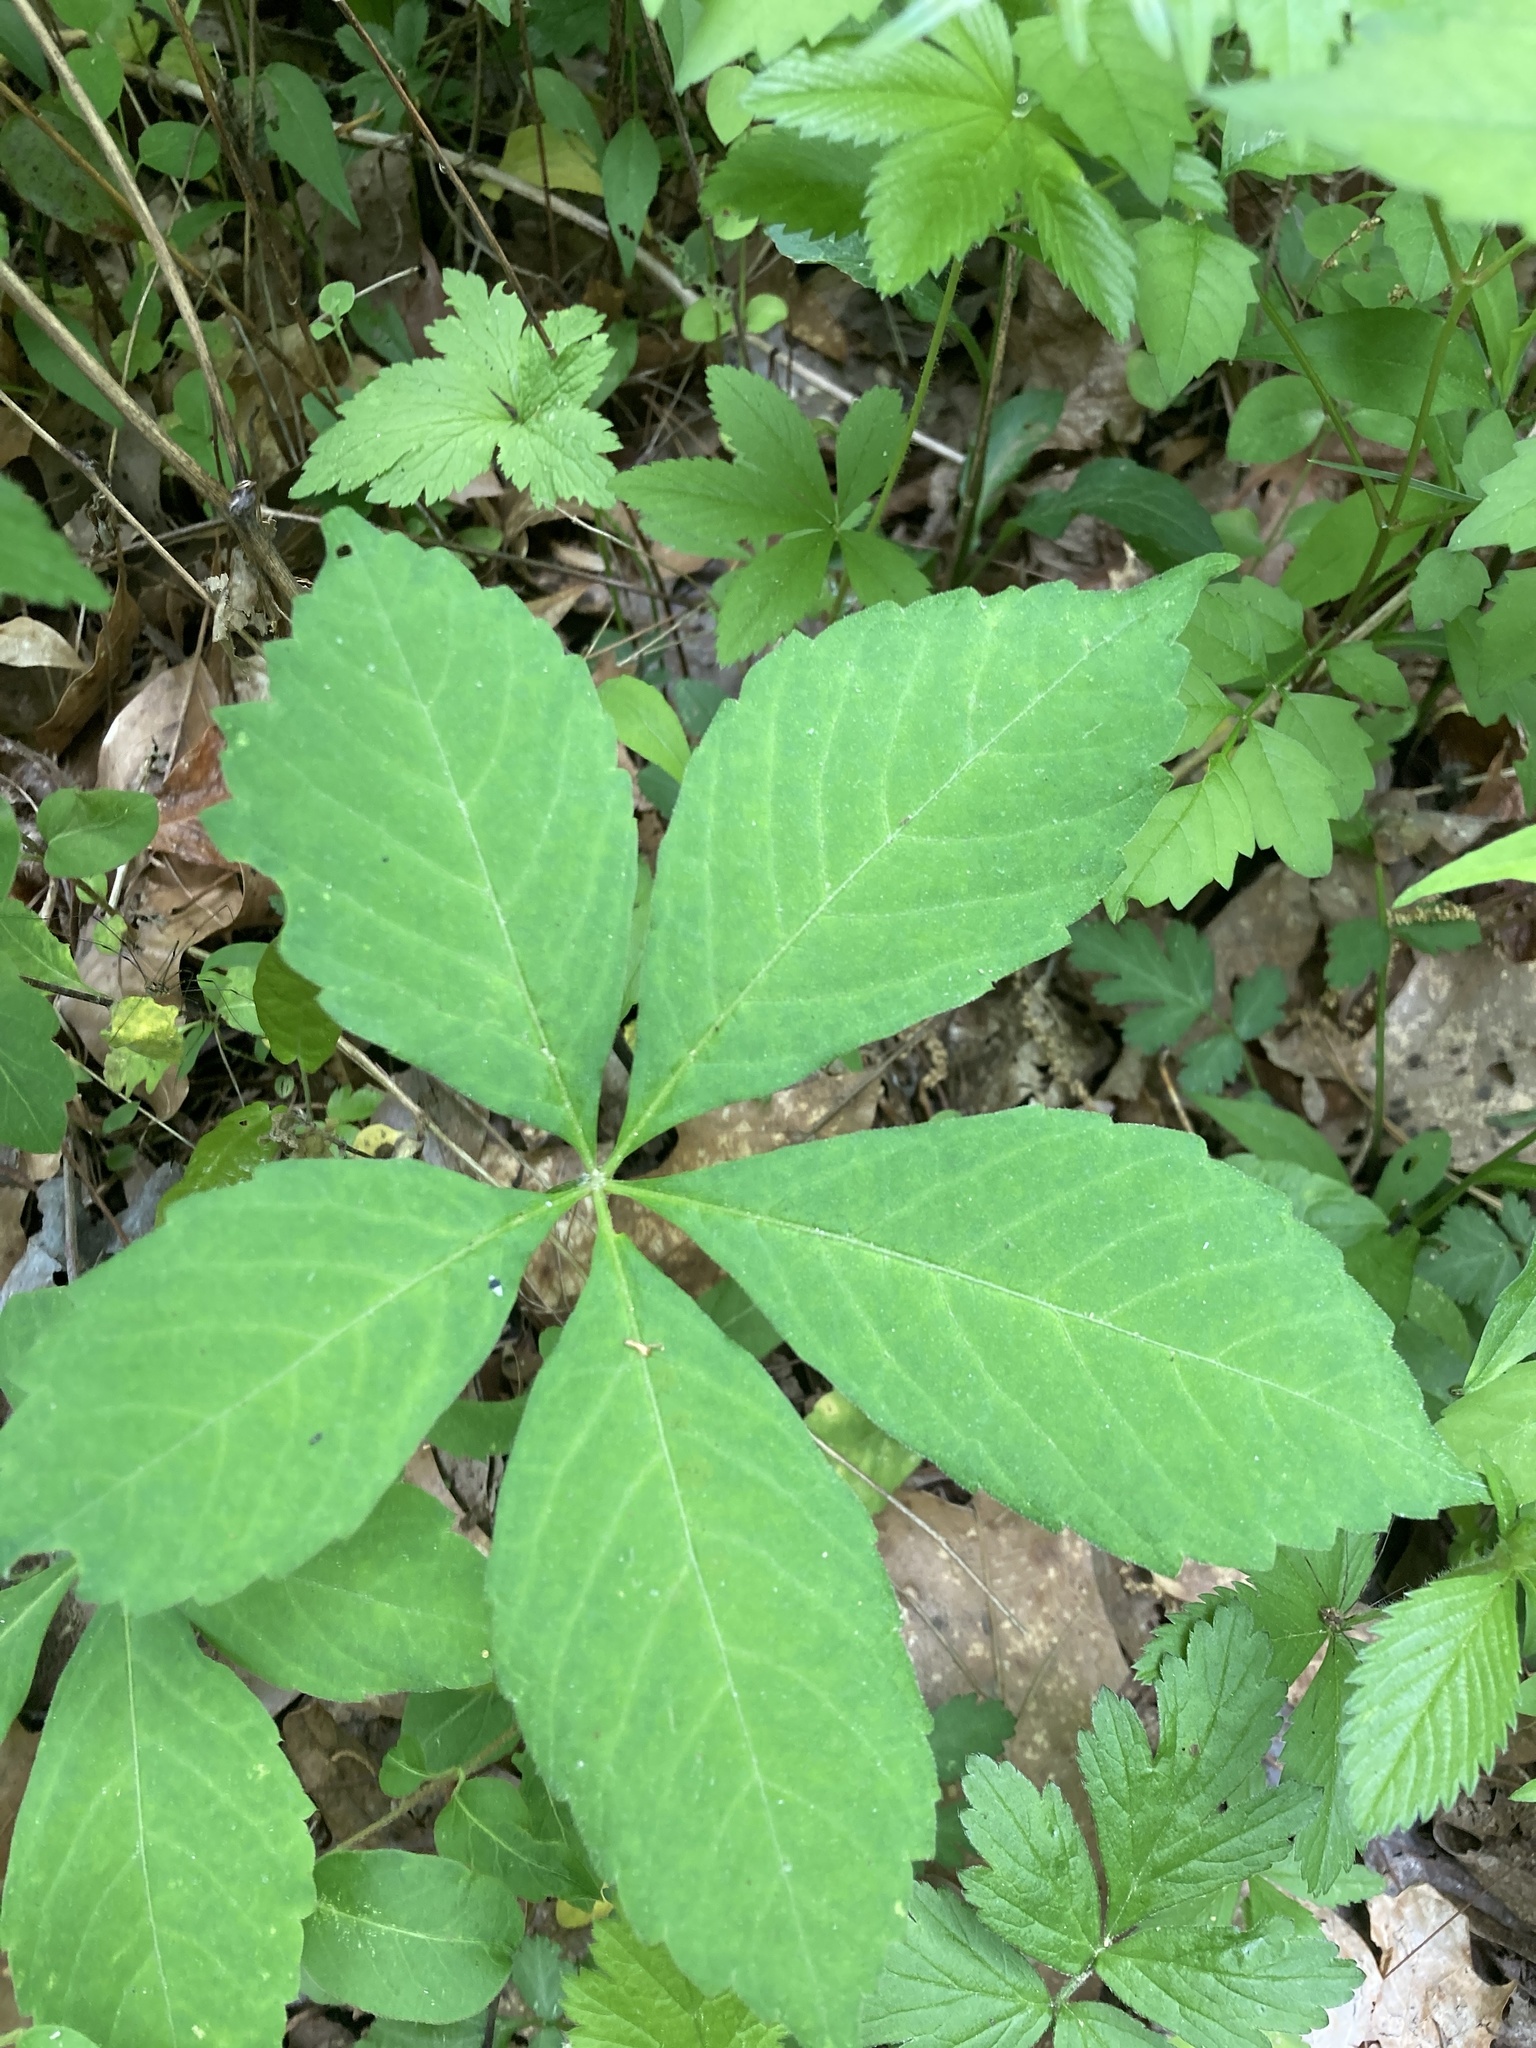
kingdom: Plantae
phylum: Tracheophyta
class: Magnoliopsida
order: Vitales
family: Vitaceae
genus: Parthenocissus
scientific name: Parthenocissus quinquefolia
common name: Virginia-creeper
